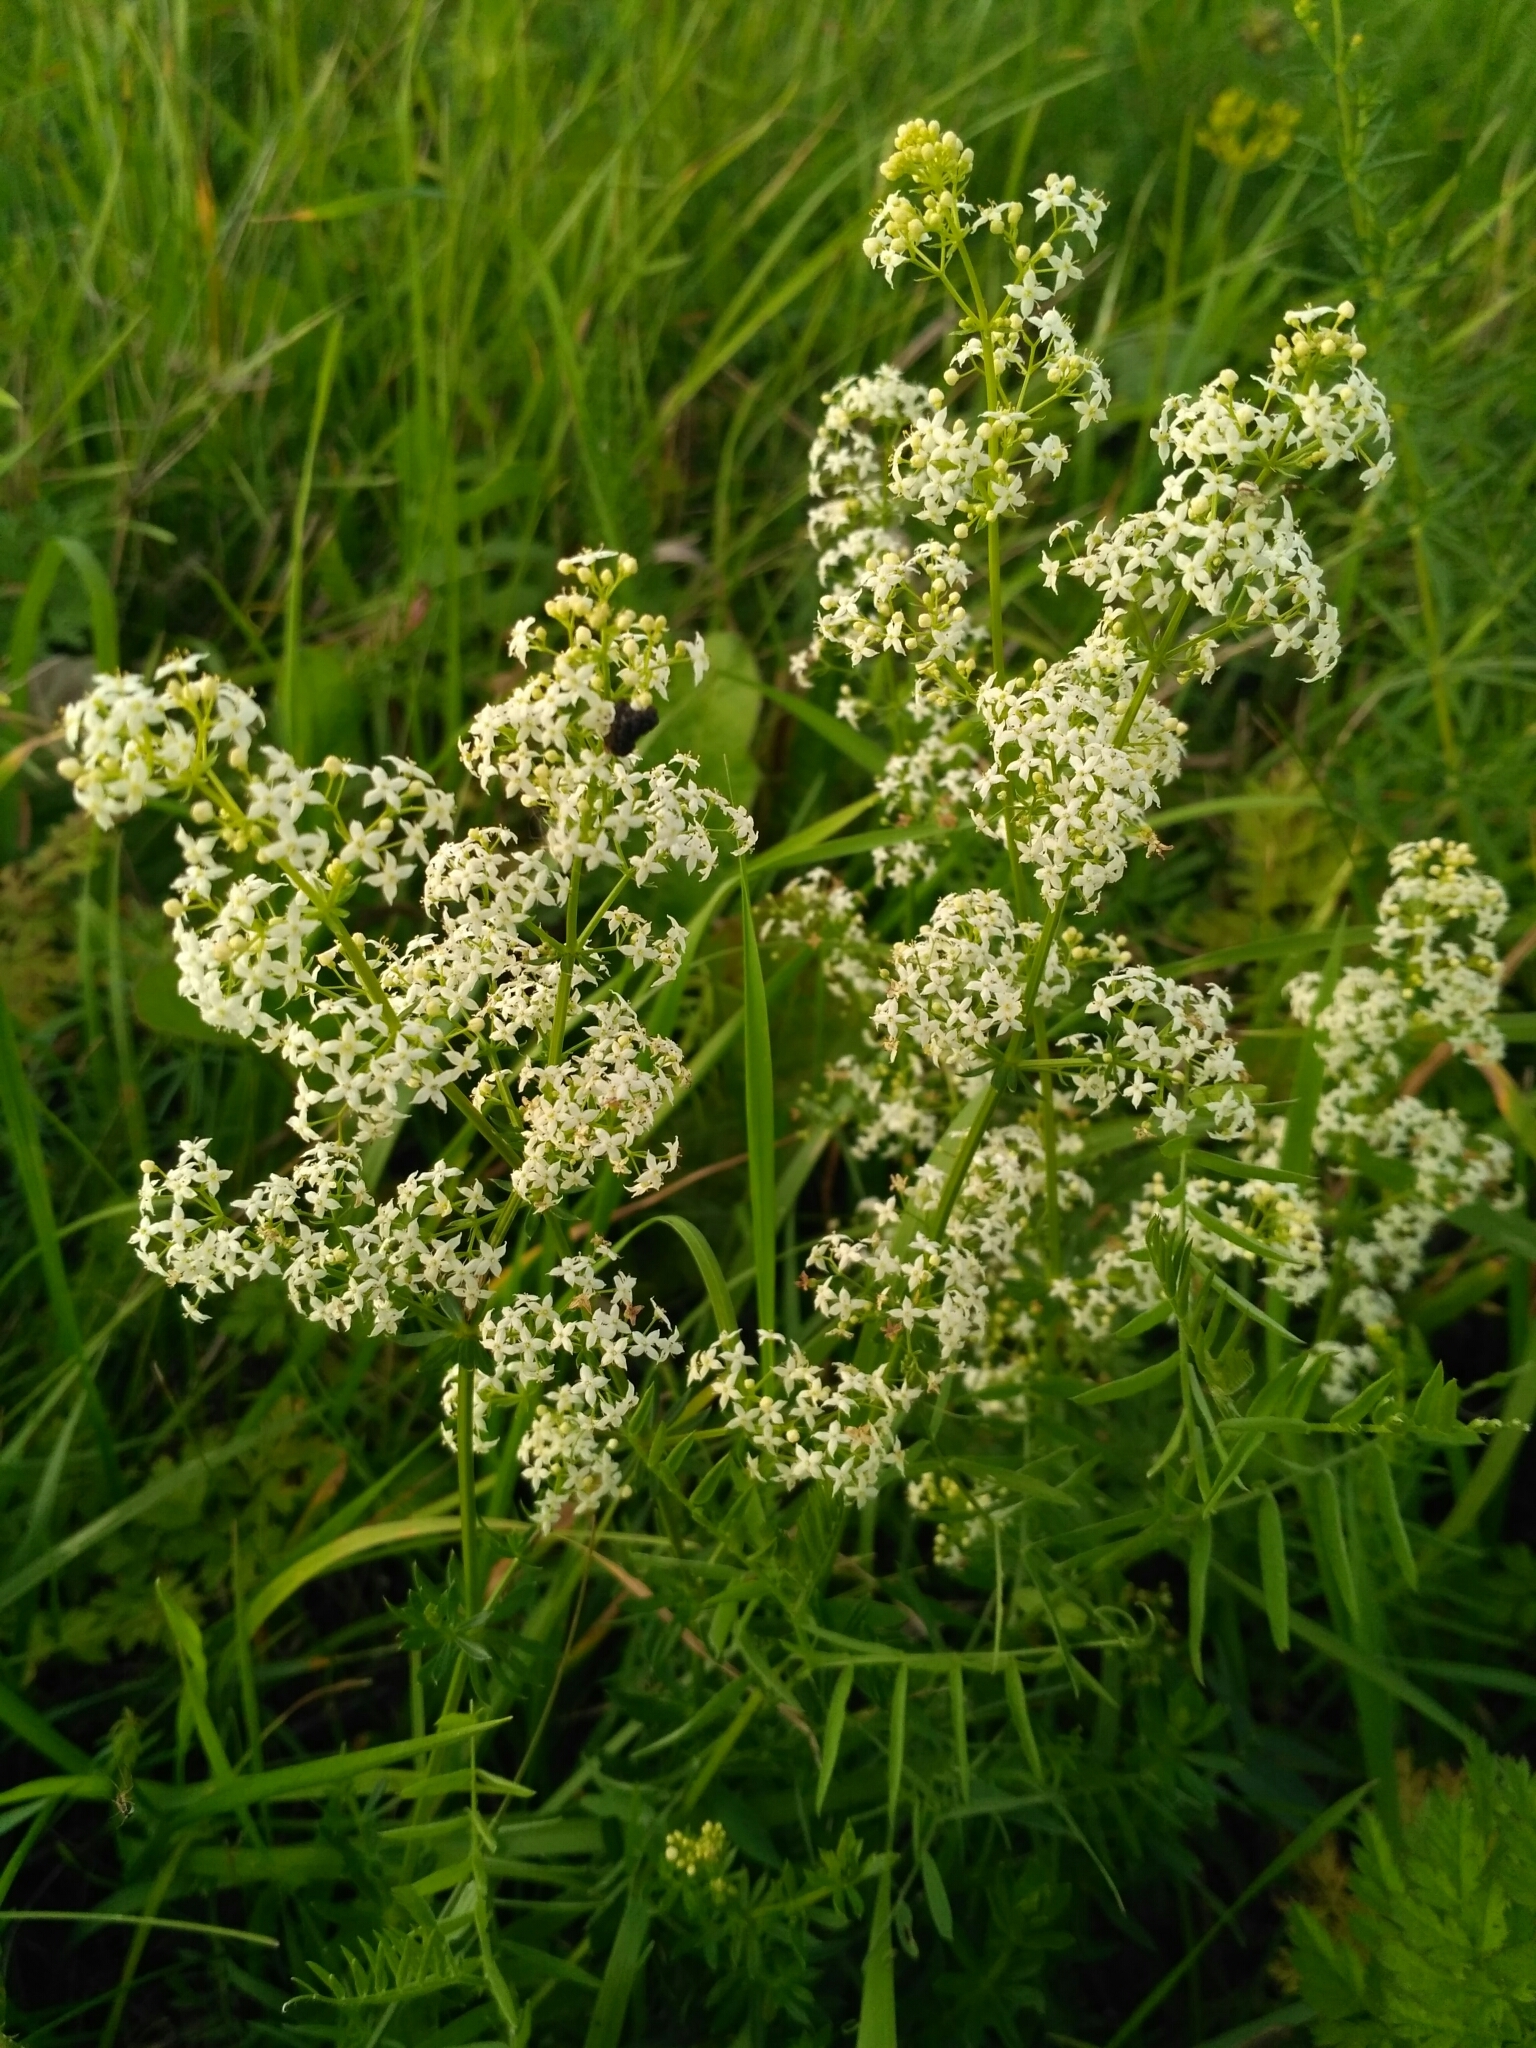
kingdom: Plantae
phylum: Tracheophyta
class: Magnoliopsida
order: Gentianales
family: Rubiaceae
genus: Galium
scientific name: Galium mollugo
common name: Hedge bedstraw
